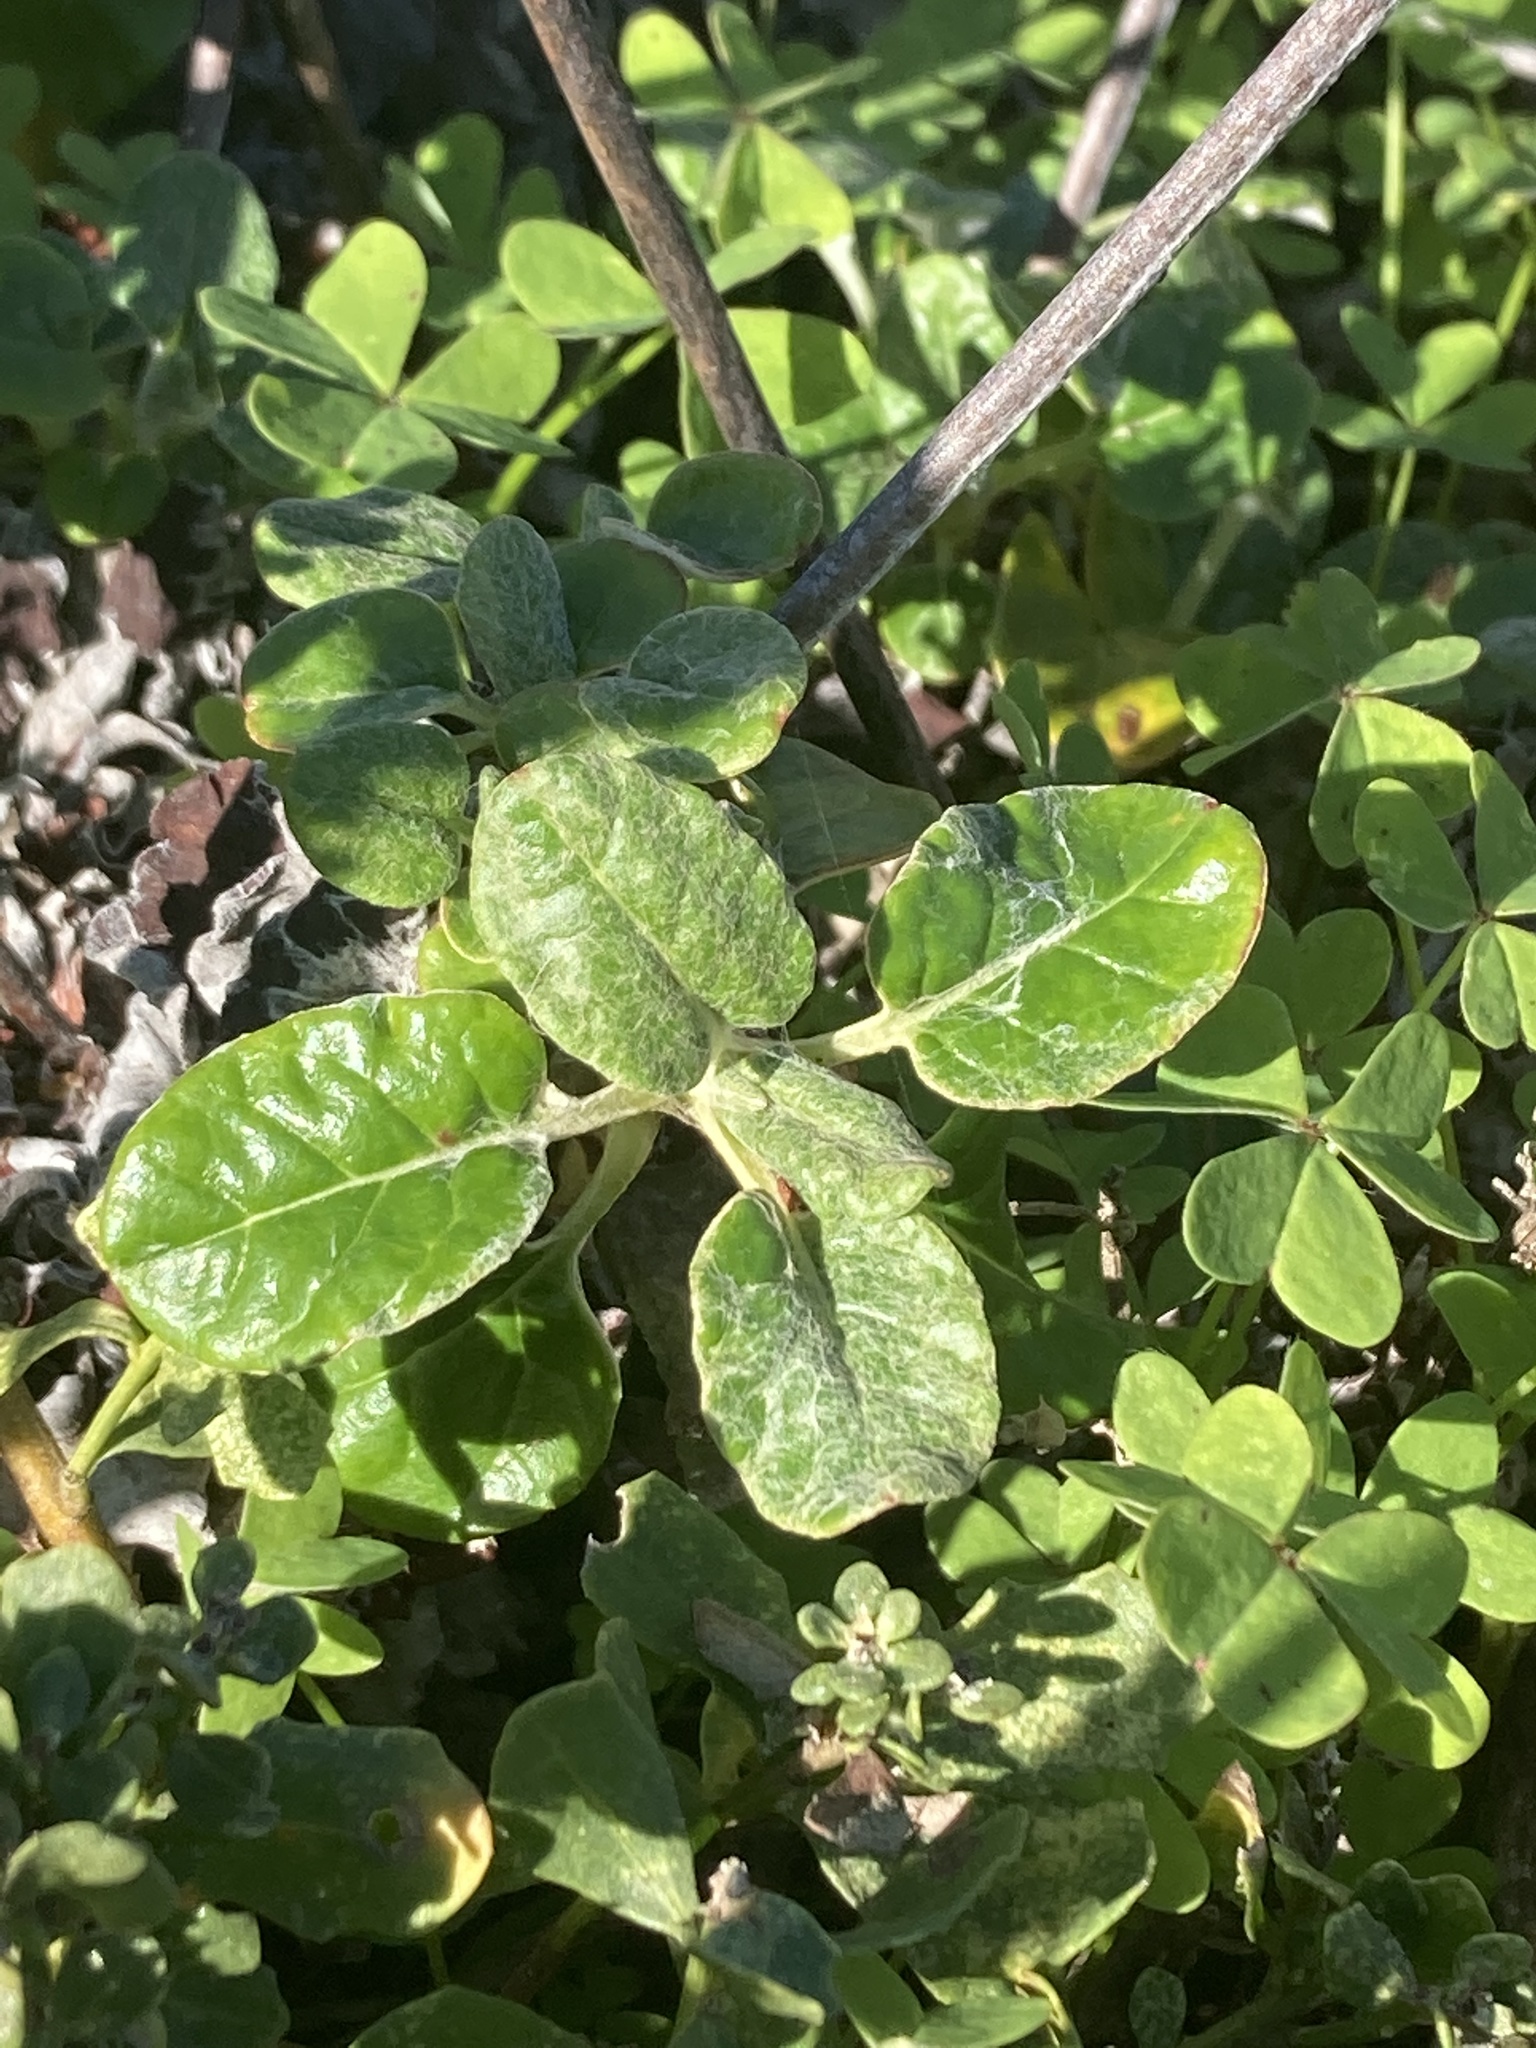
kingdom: Plantae
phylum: Tracheophyta
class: Magnoliopsida
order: Caryophyllales
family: Polygonaceae
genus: Eriogonum
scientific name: Eriogonum latifolium
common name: Seaside wild buckwheat
